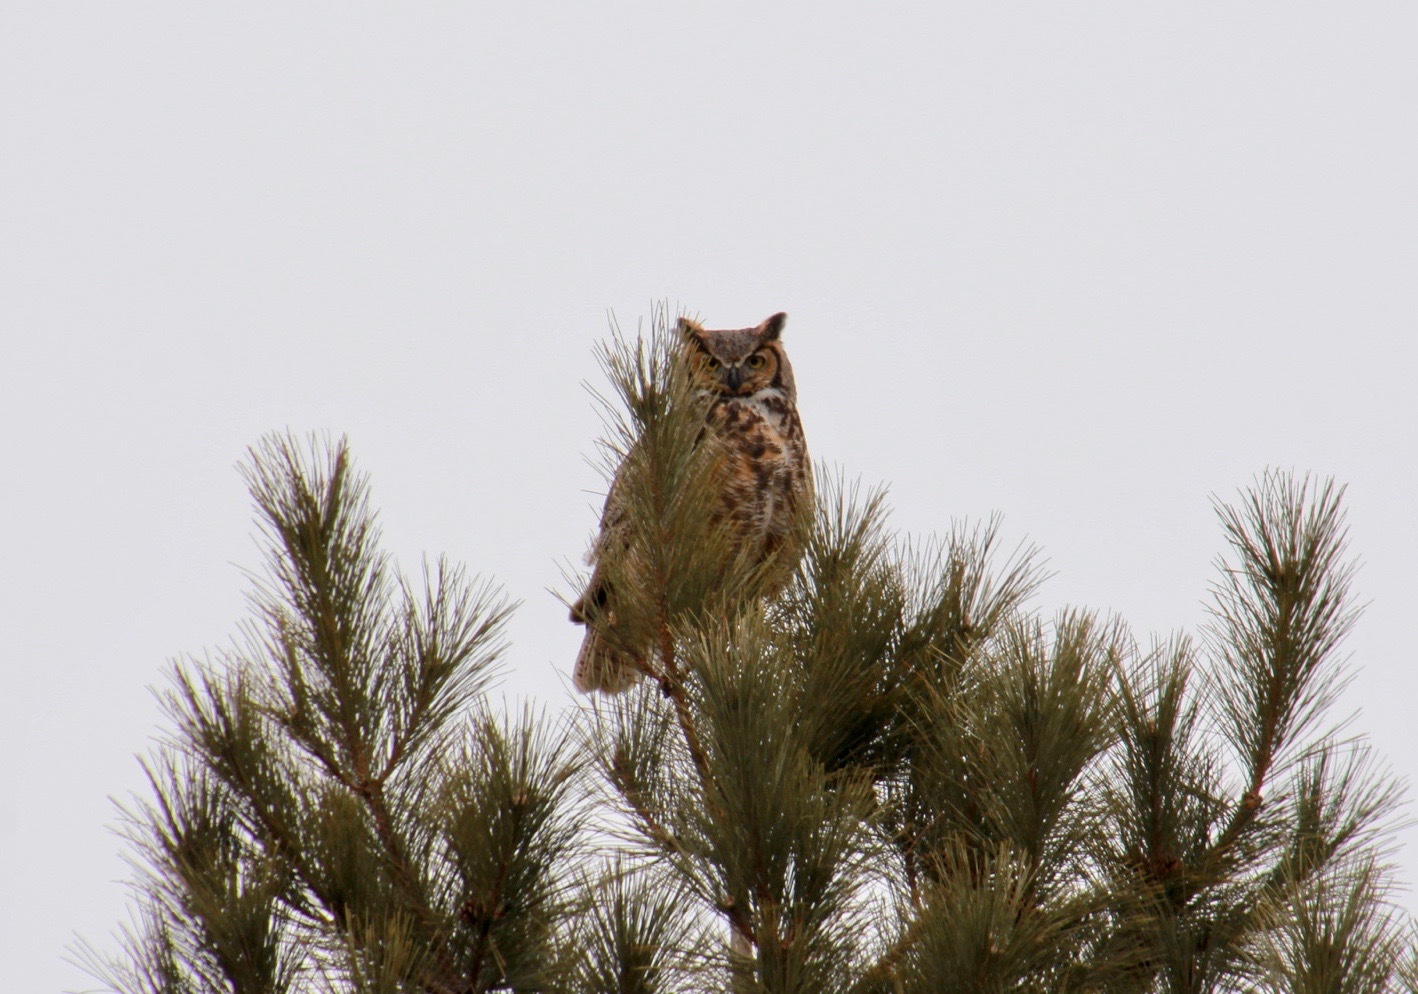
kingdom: Animalia
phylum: Chordata
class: Aves
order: Strigiformes
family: Strigidae
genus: Bubo
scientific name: Bubo virginianus
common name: Great horned owl
